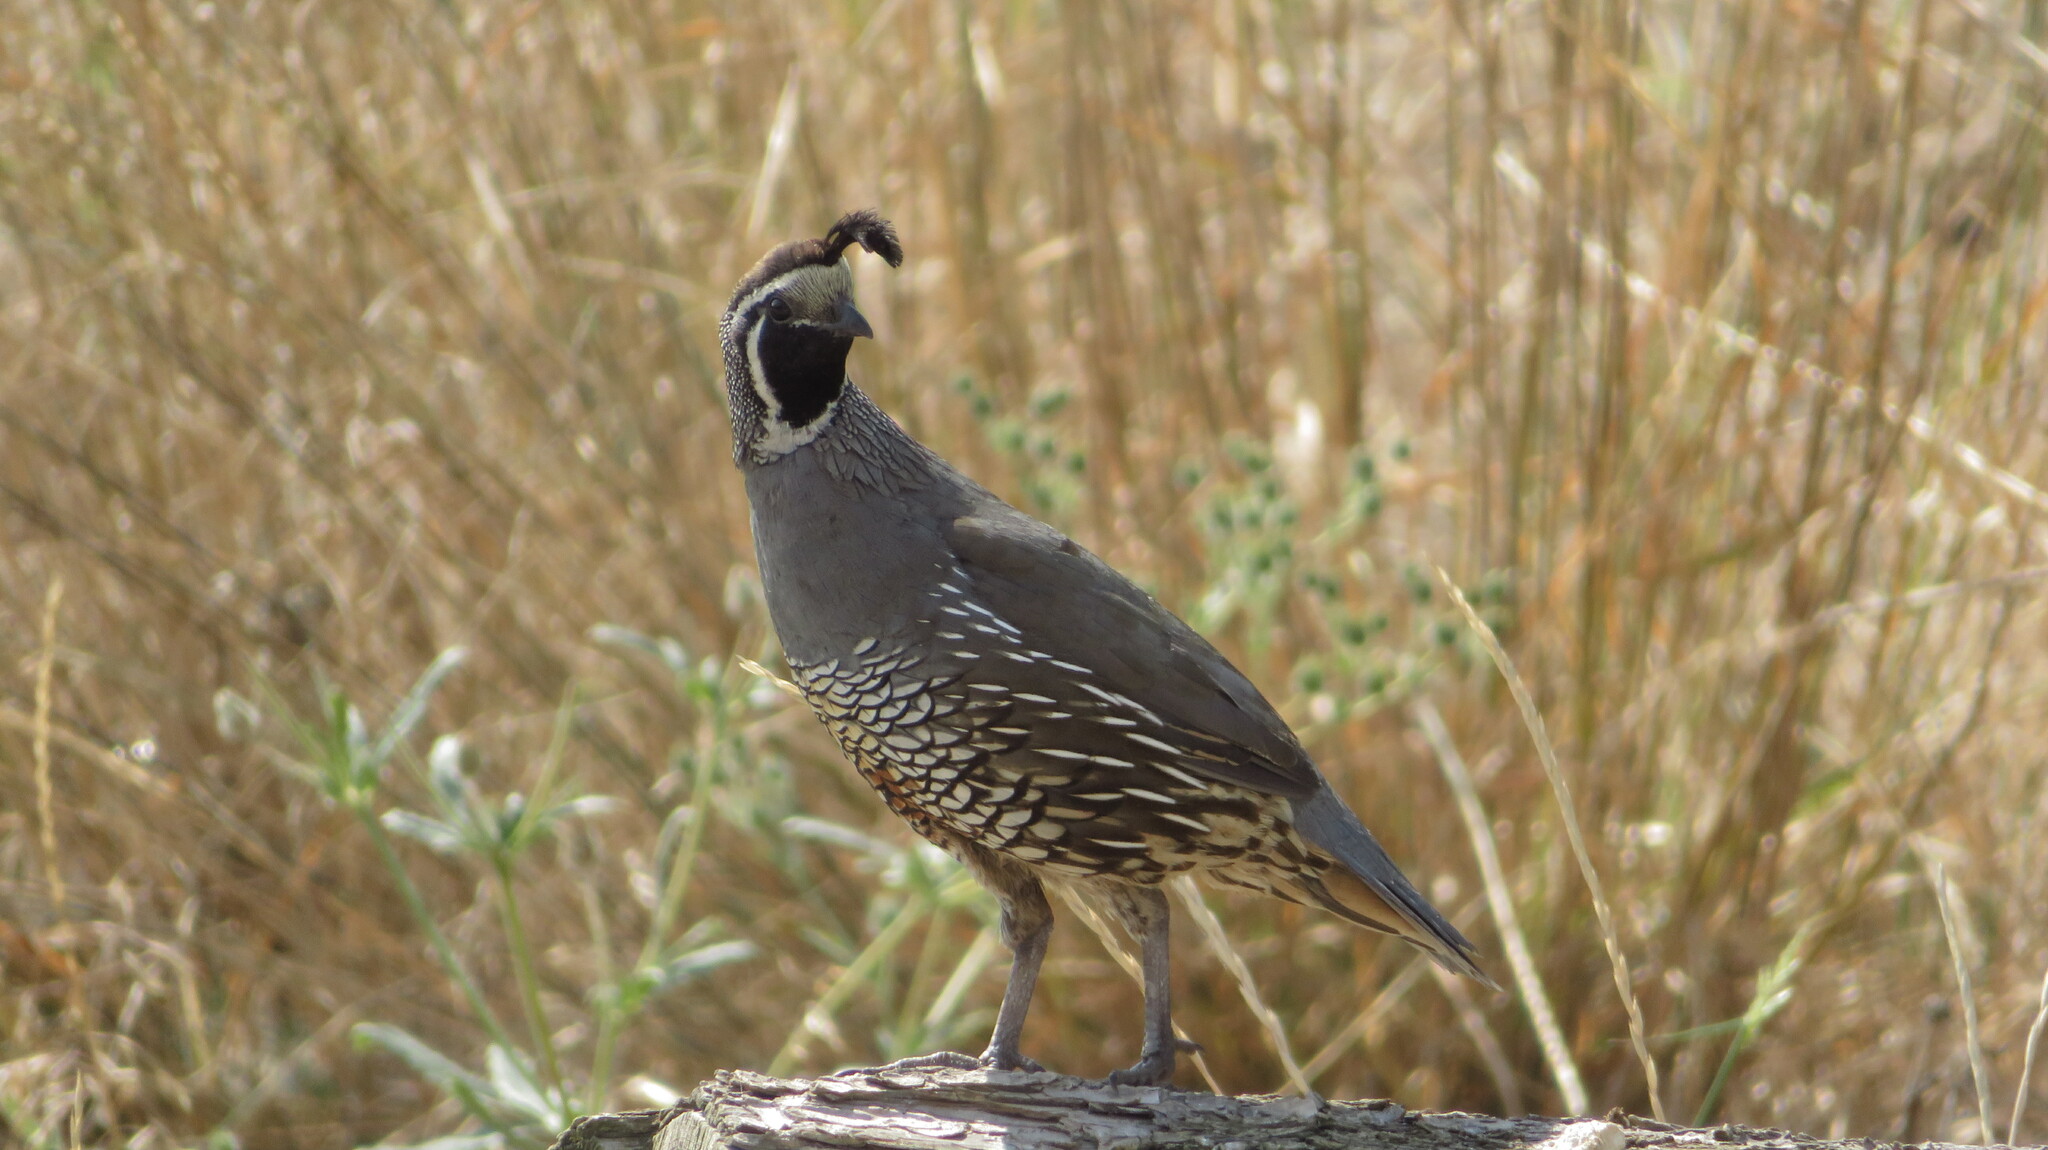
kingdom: Animalia
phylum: Chordata
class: Aves
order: Galliformes
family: Odontophoridae
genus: Callipepla
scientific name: Callipepla californica
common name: California quail
